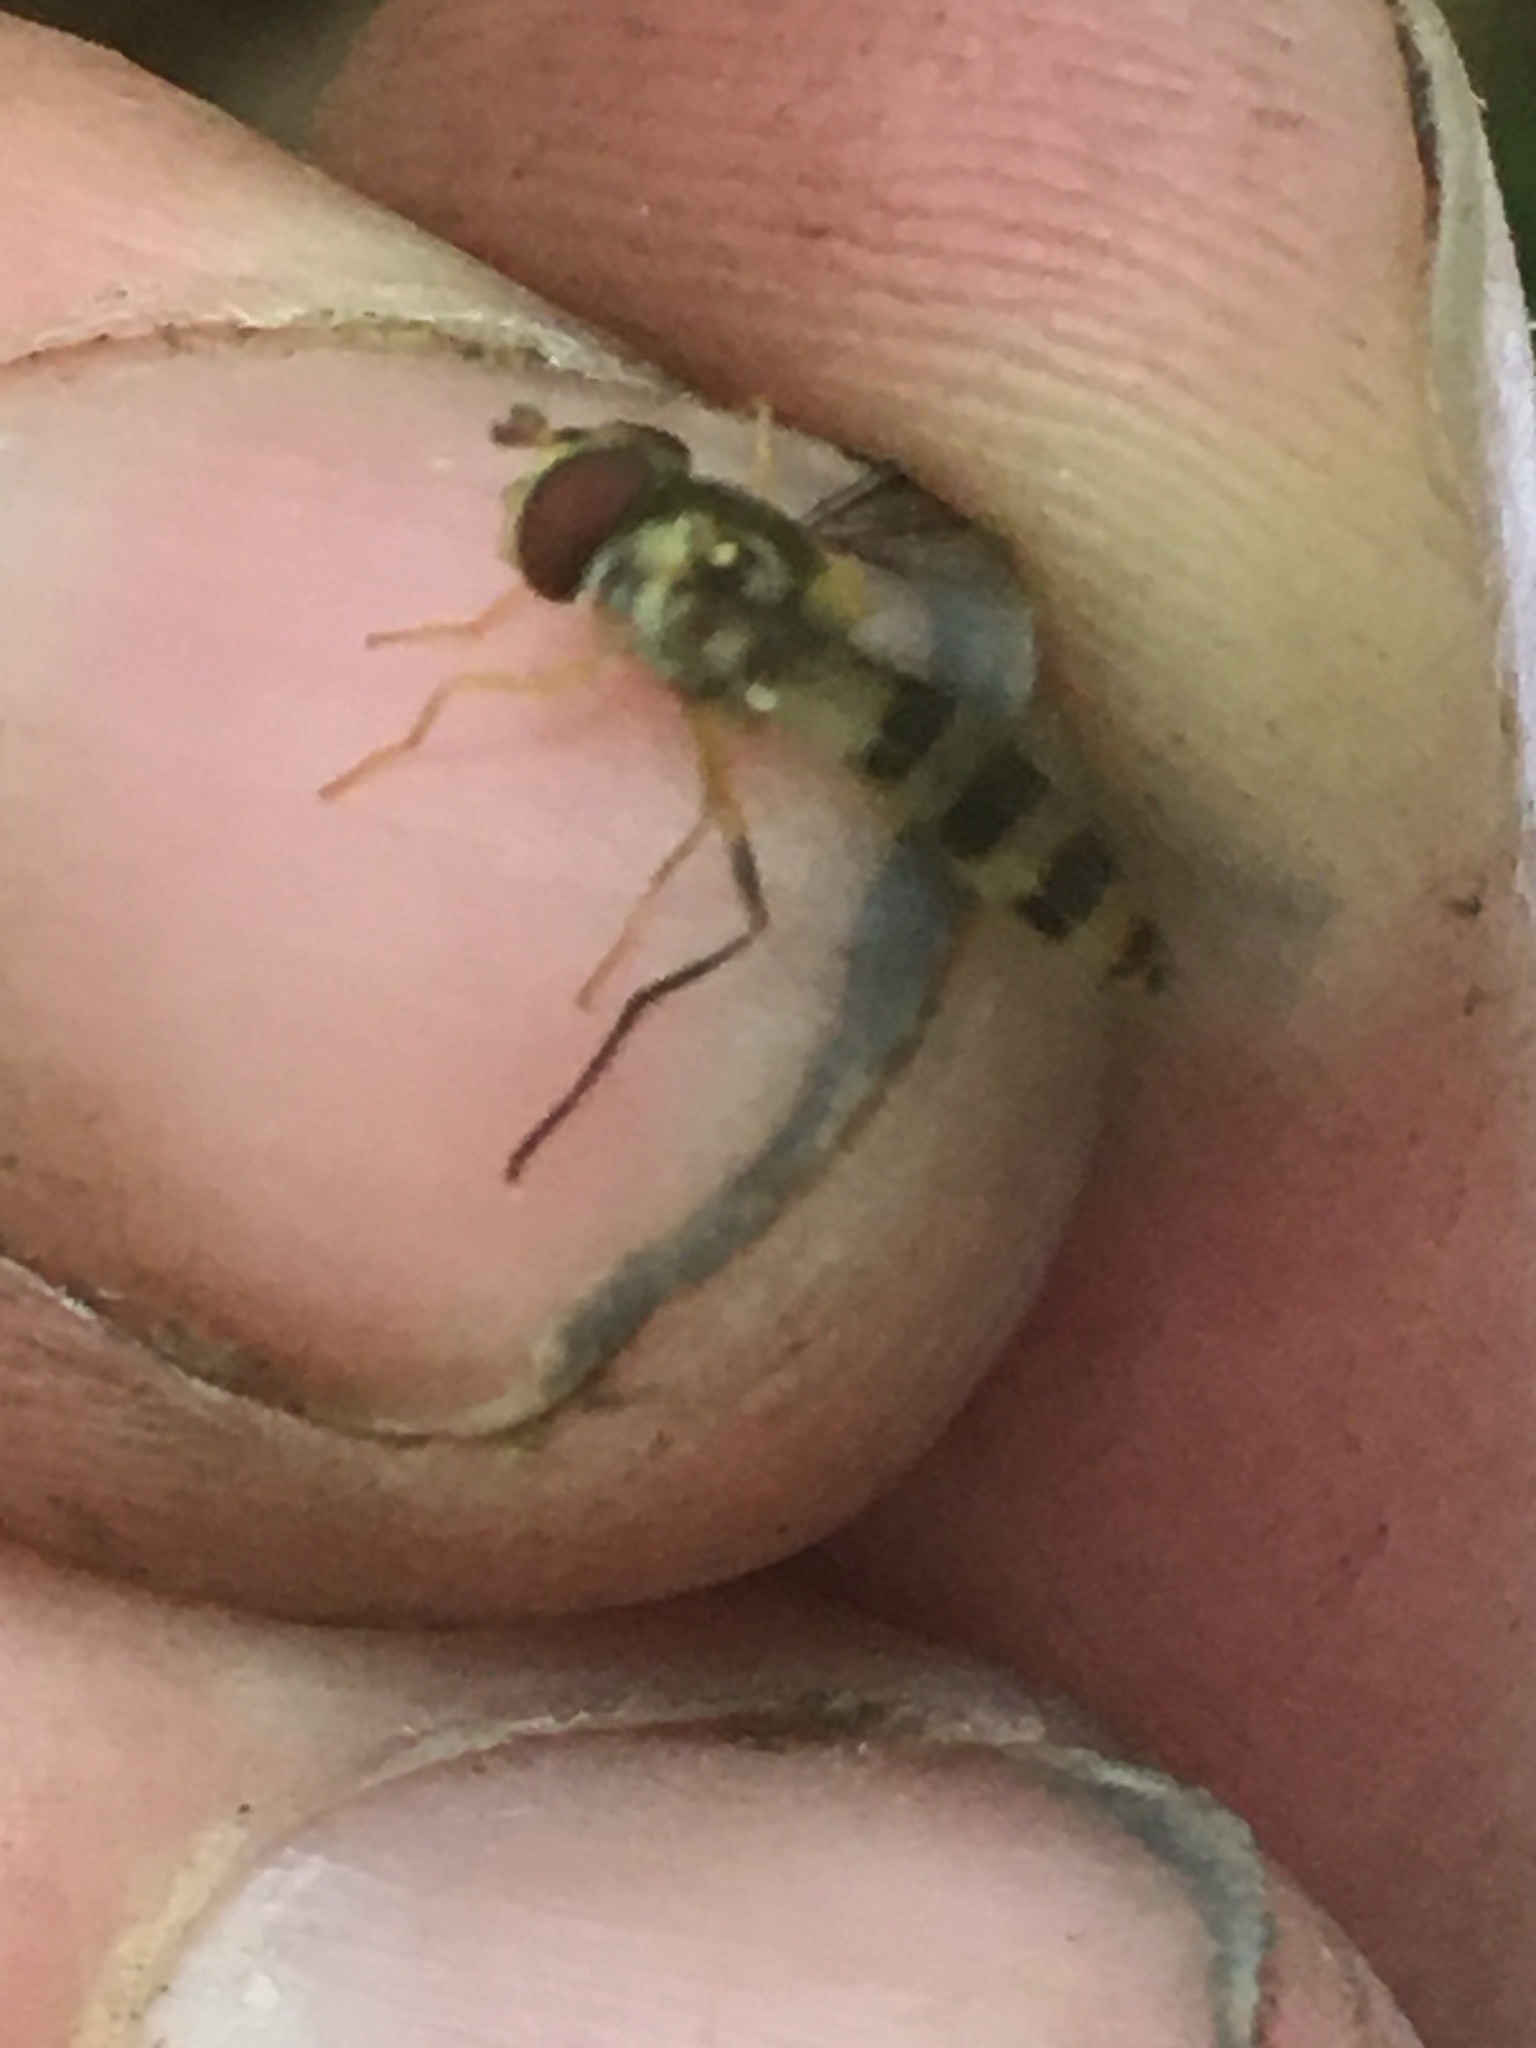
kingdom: Animalia
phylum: Arthropoda
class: Insecta
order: Diptera
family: Syrphidae
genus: Meliscaeva
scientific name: Meliscaeva cinctella
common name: American thintail fly
